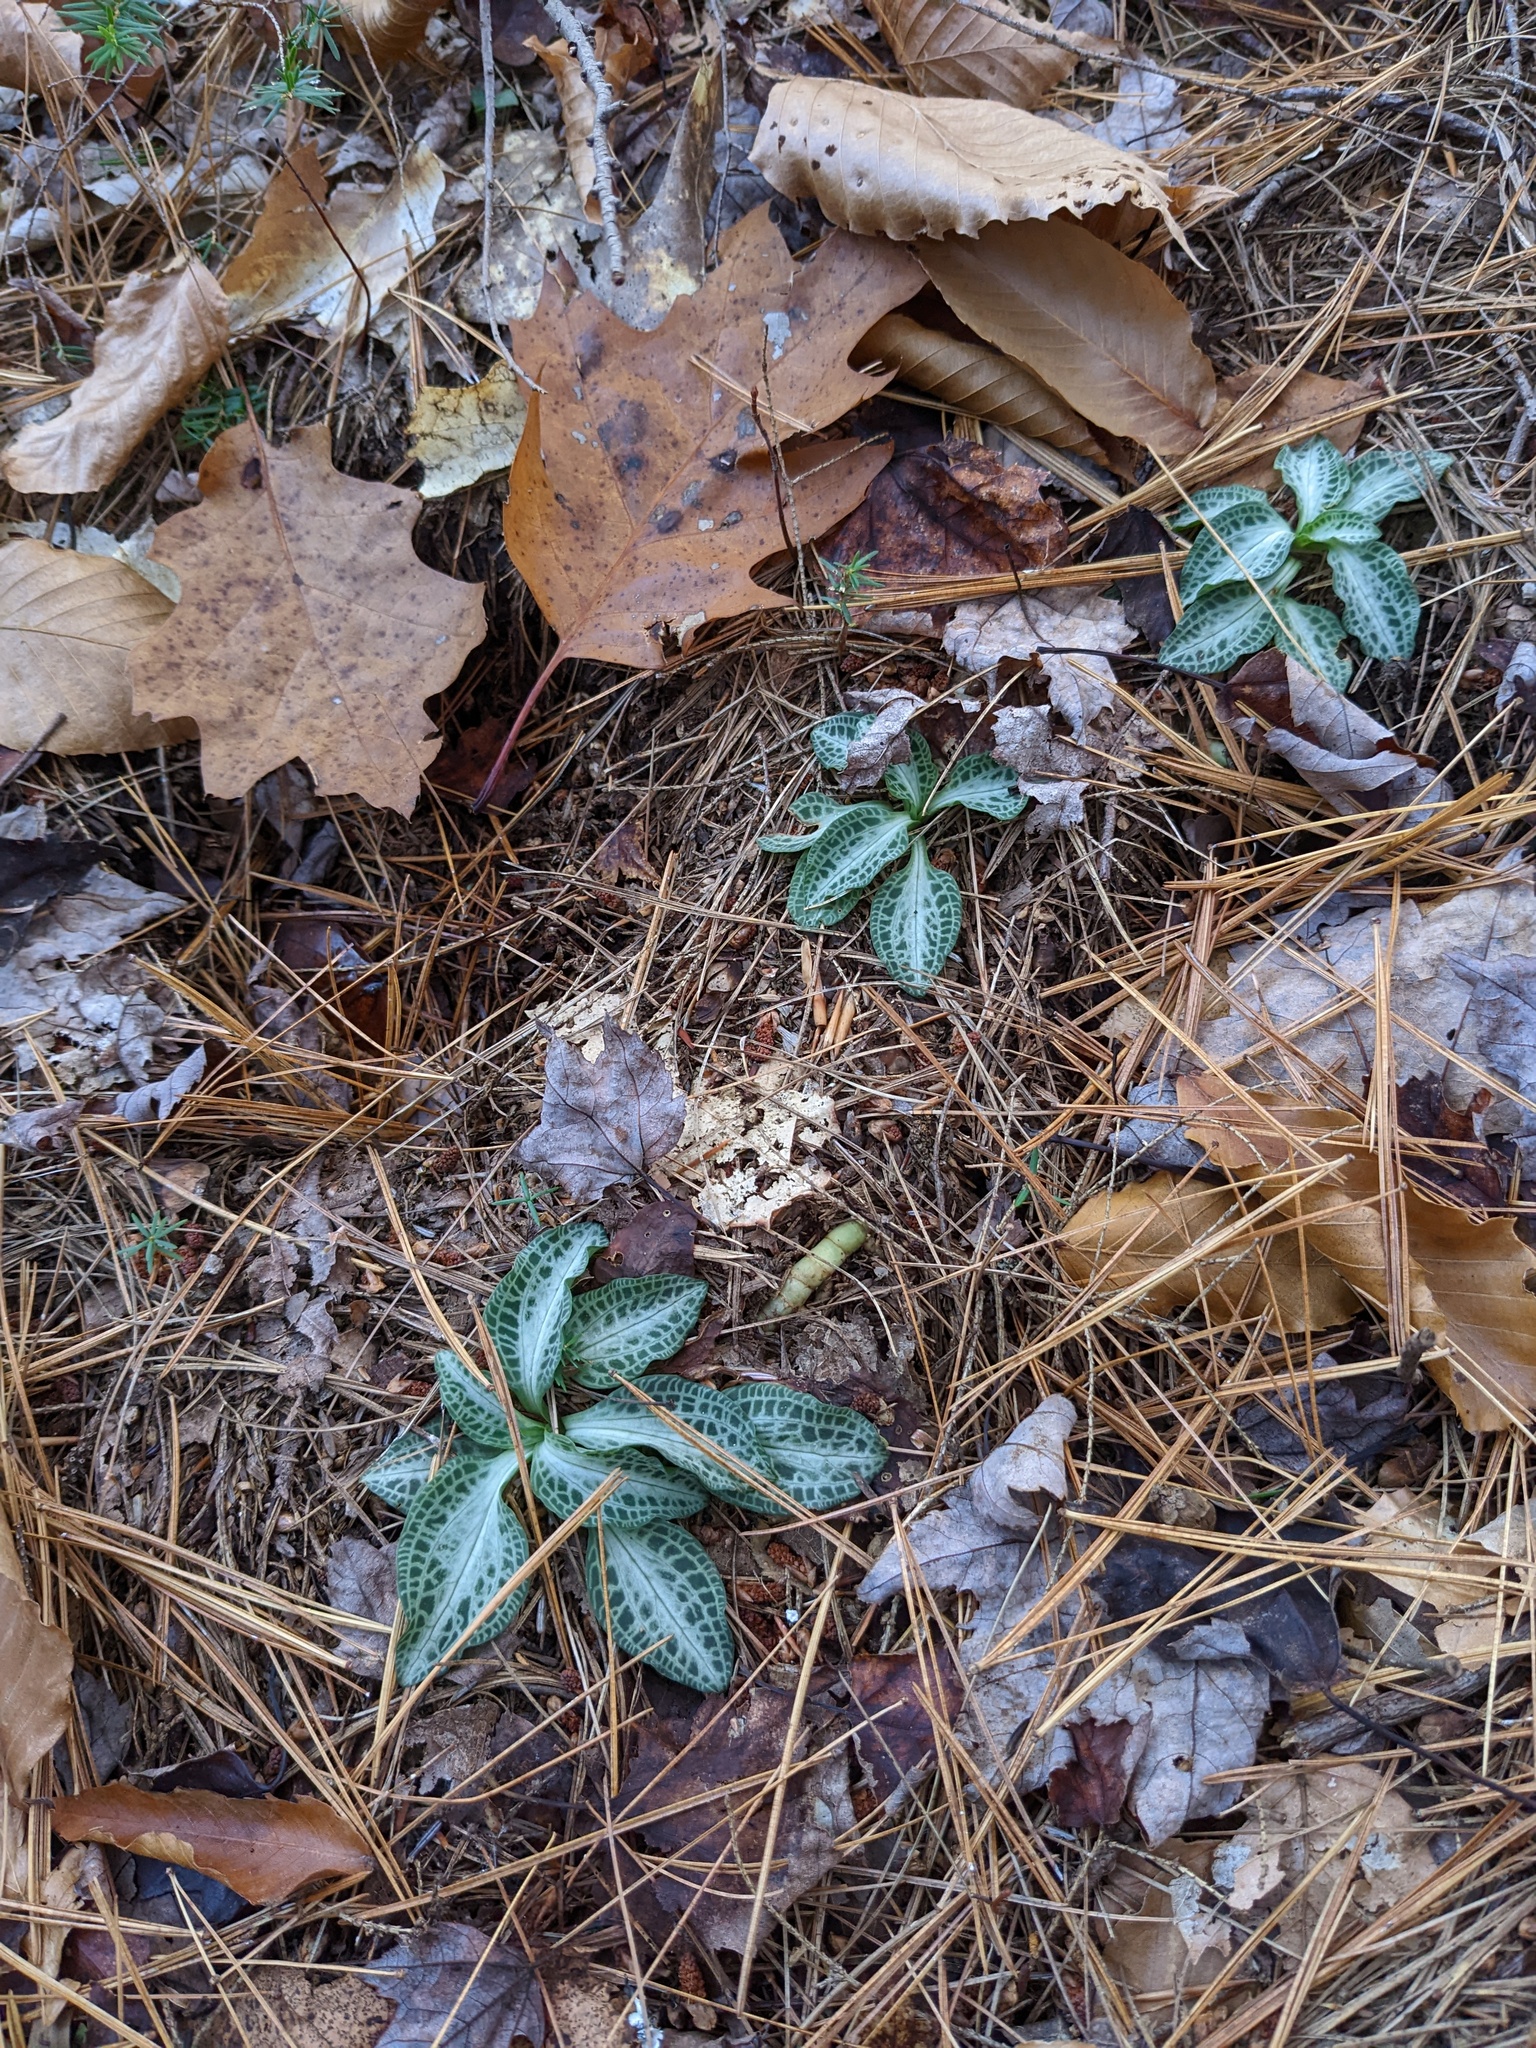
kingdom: Plantae
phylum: Tracheophyta
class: Liliopsida
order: Asparagales
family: Orchidaceae
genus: Goodyera
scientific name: Goodyera pubescens
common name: Downy rattlesnake-plantain
